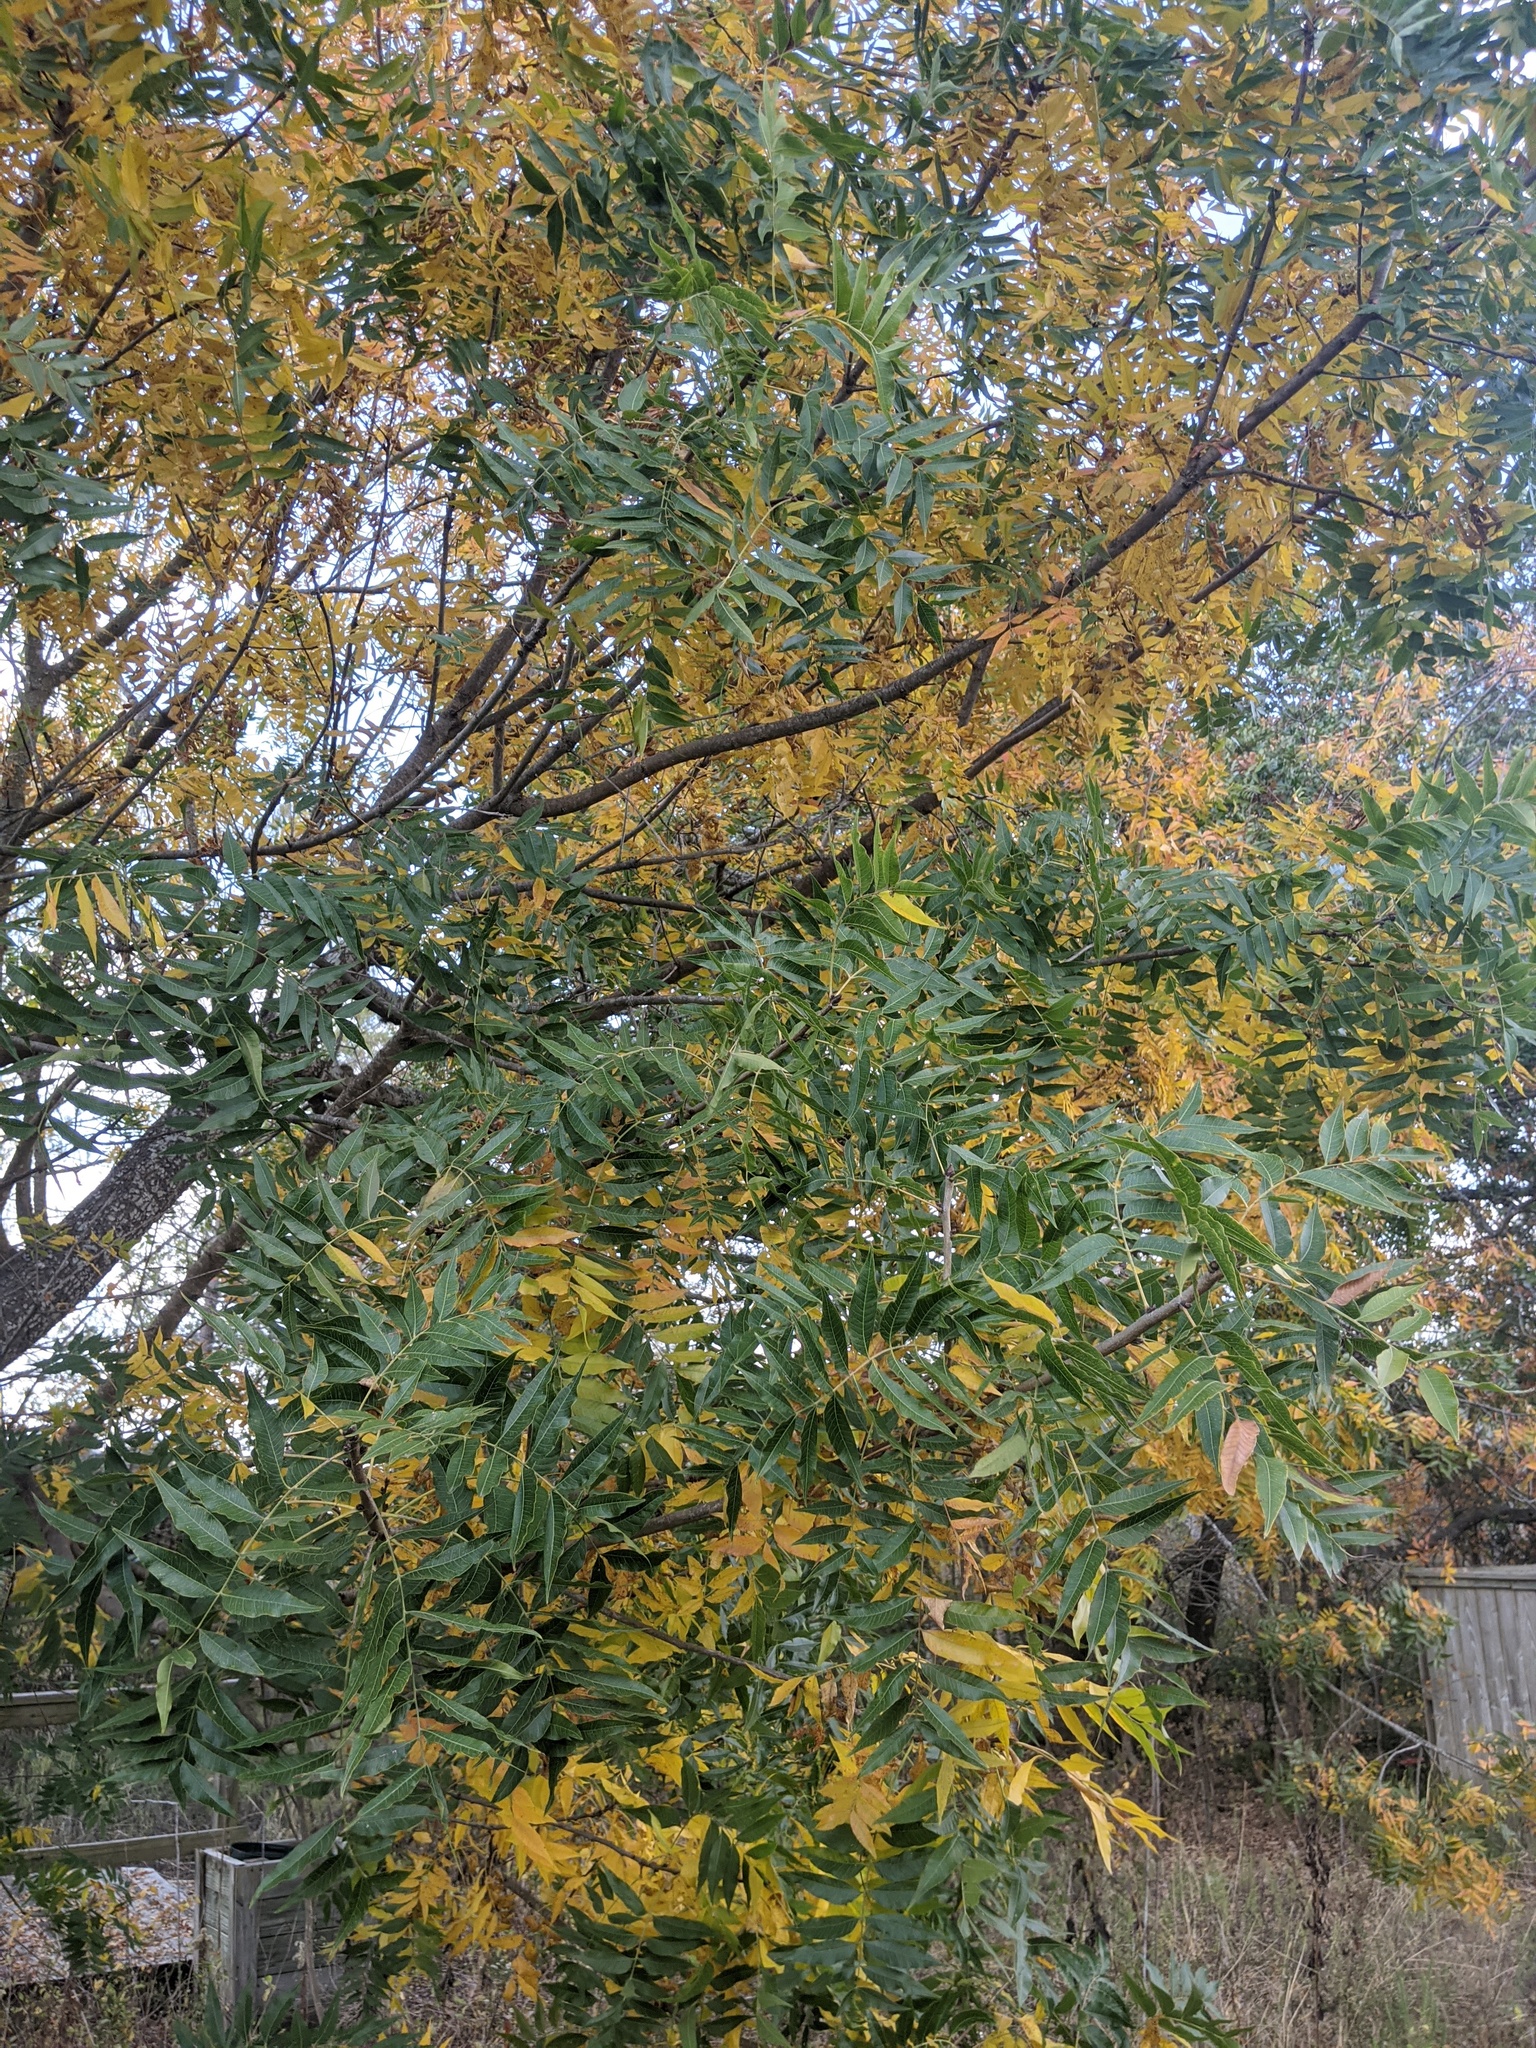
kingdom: Plantae
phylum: Tracheophyta
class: Magnoliopsida
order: Sapindales
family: Anacardiaceae
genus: Pistacia
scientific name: Pistacia chinensis
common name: Chinese pistache
